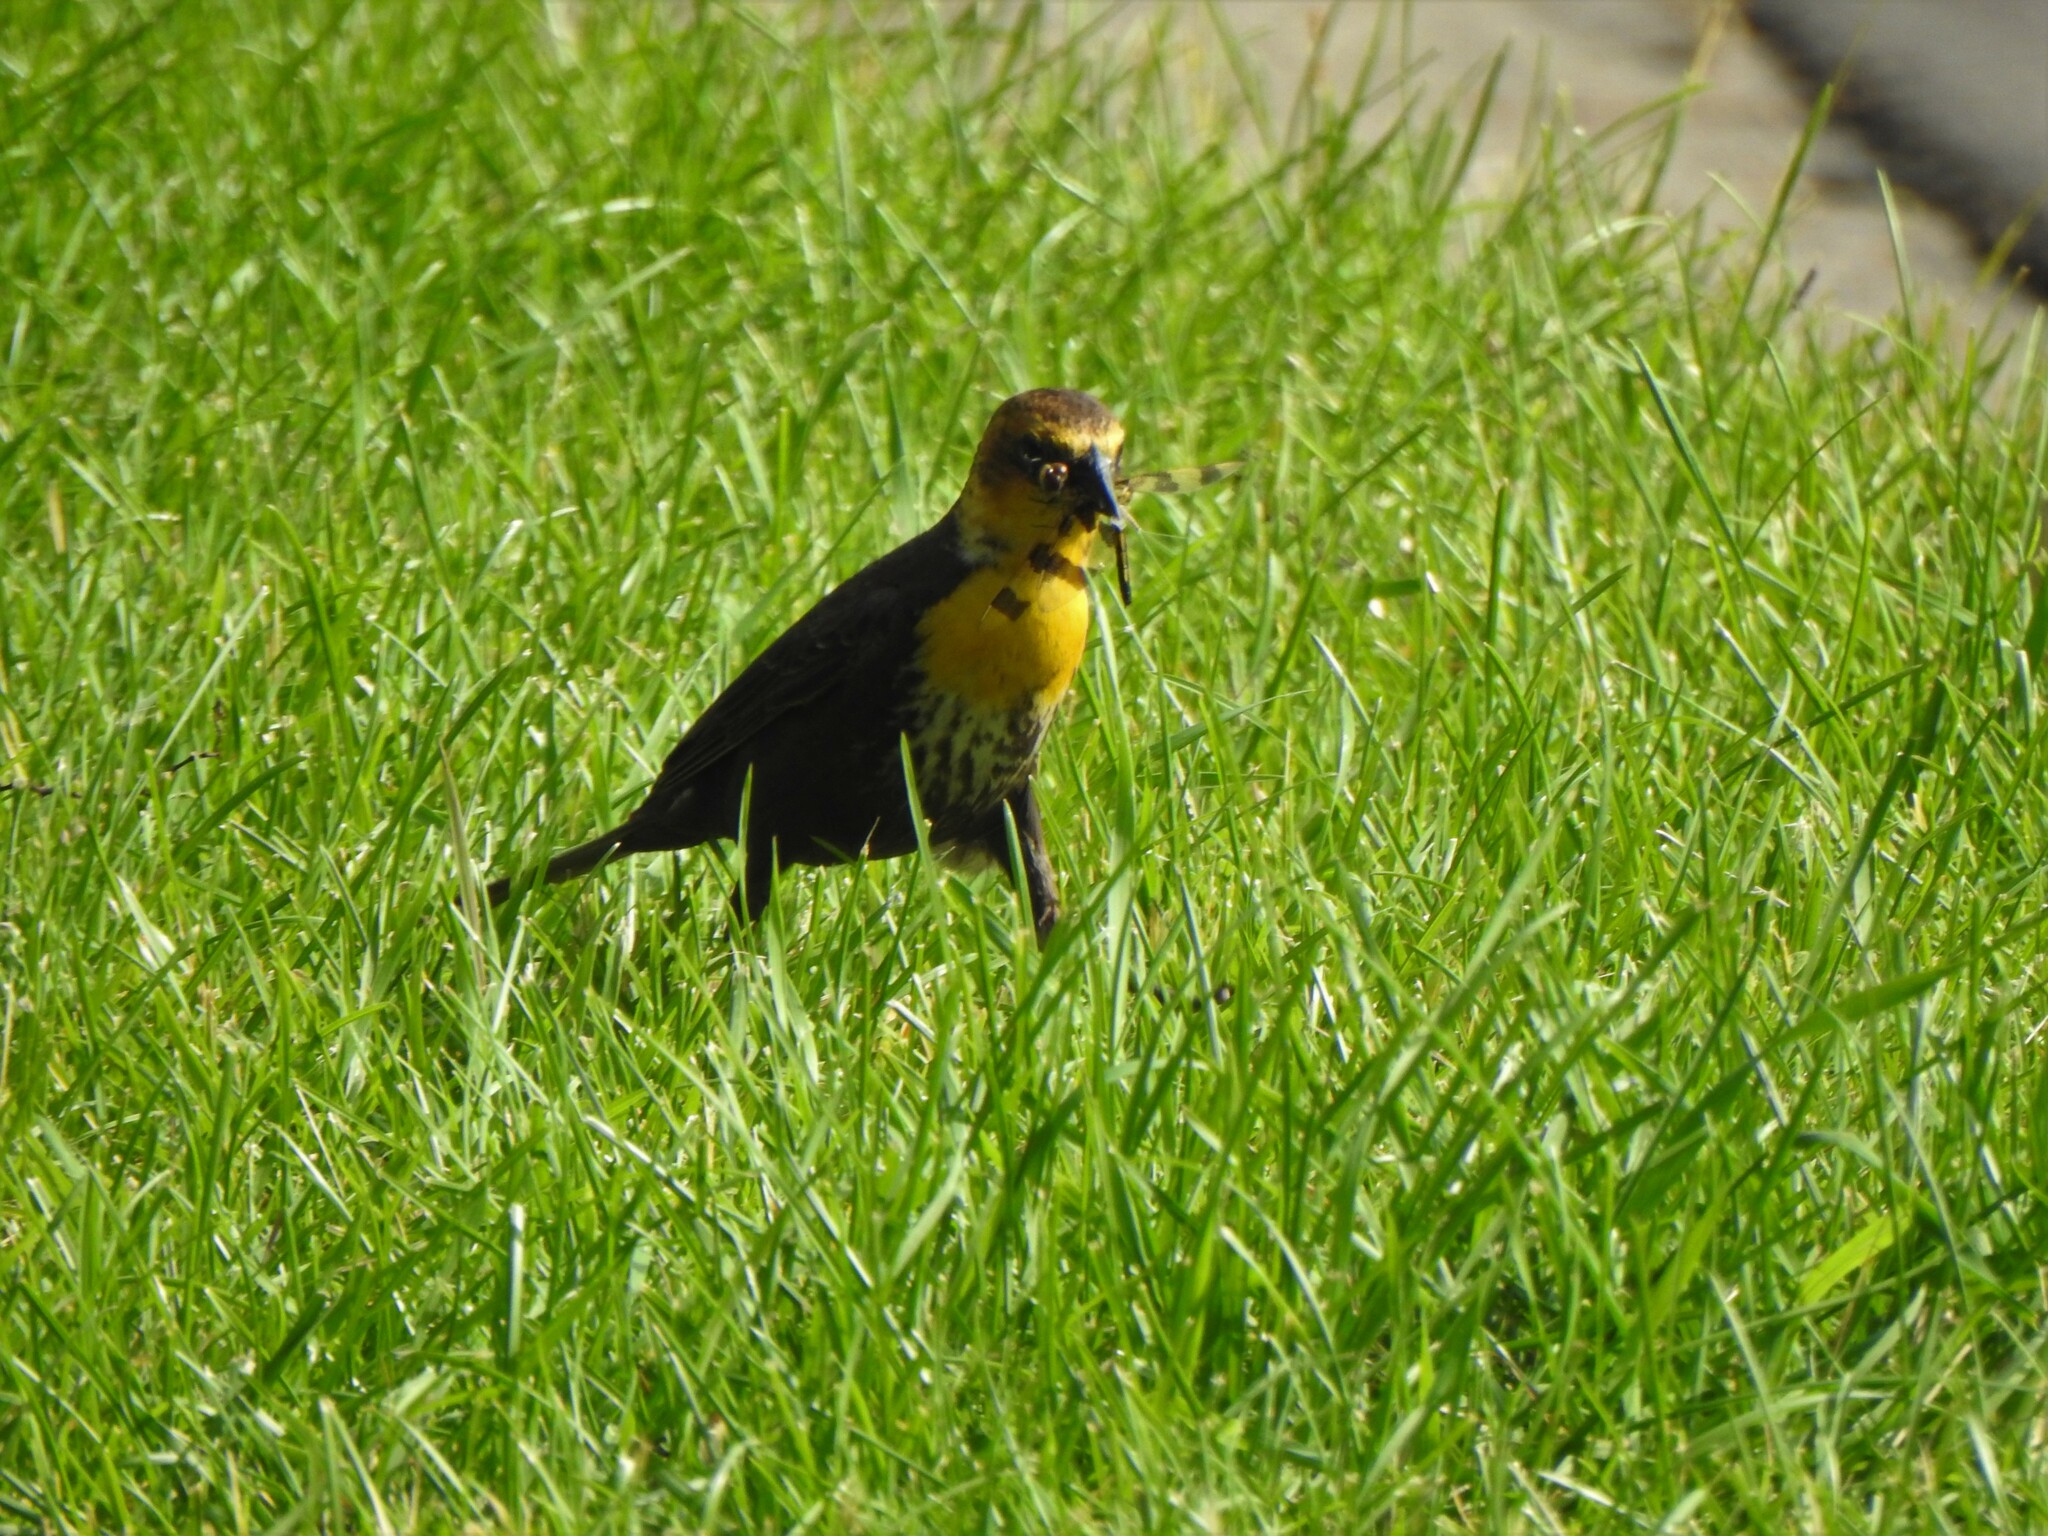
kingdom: Animalia
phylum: Chordata
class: Aves
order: Passeriformes
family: Icteridae
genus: Xanthocephalus
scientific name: Xanthocephalus xanthocephalus
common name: Yellow-headed blackbird
